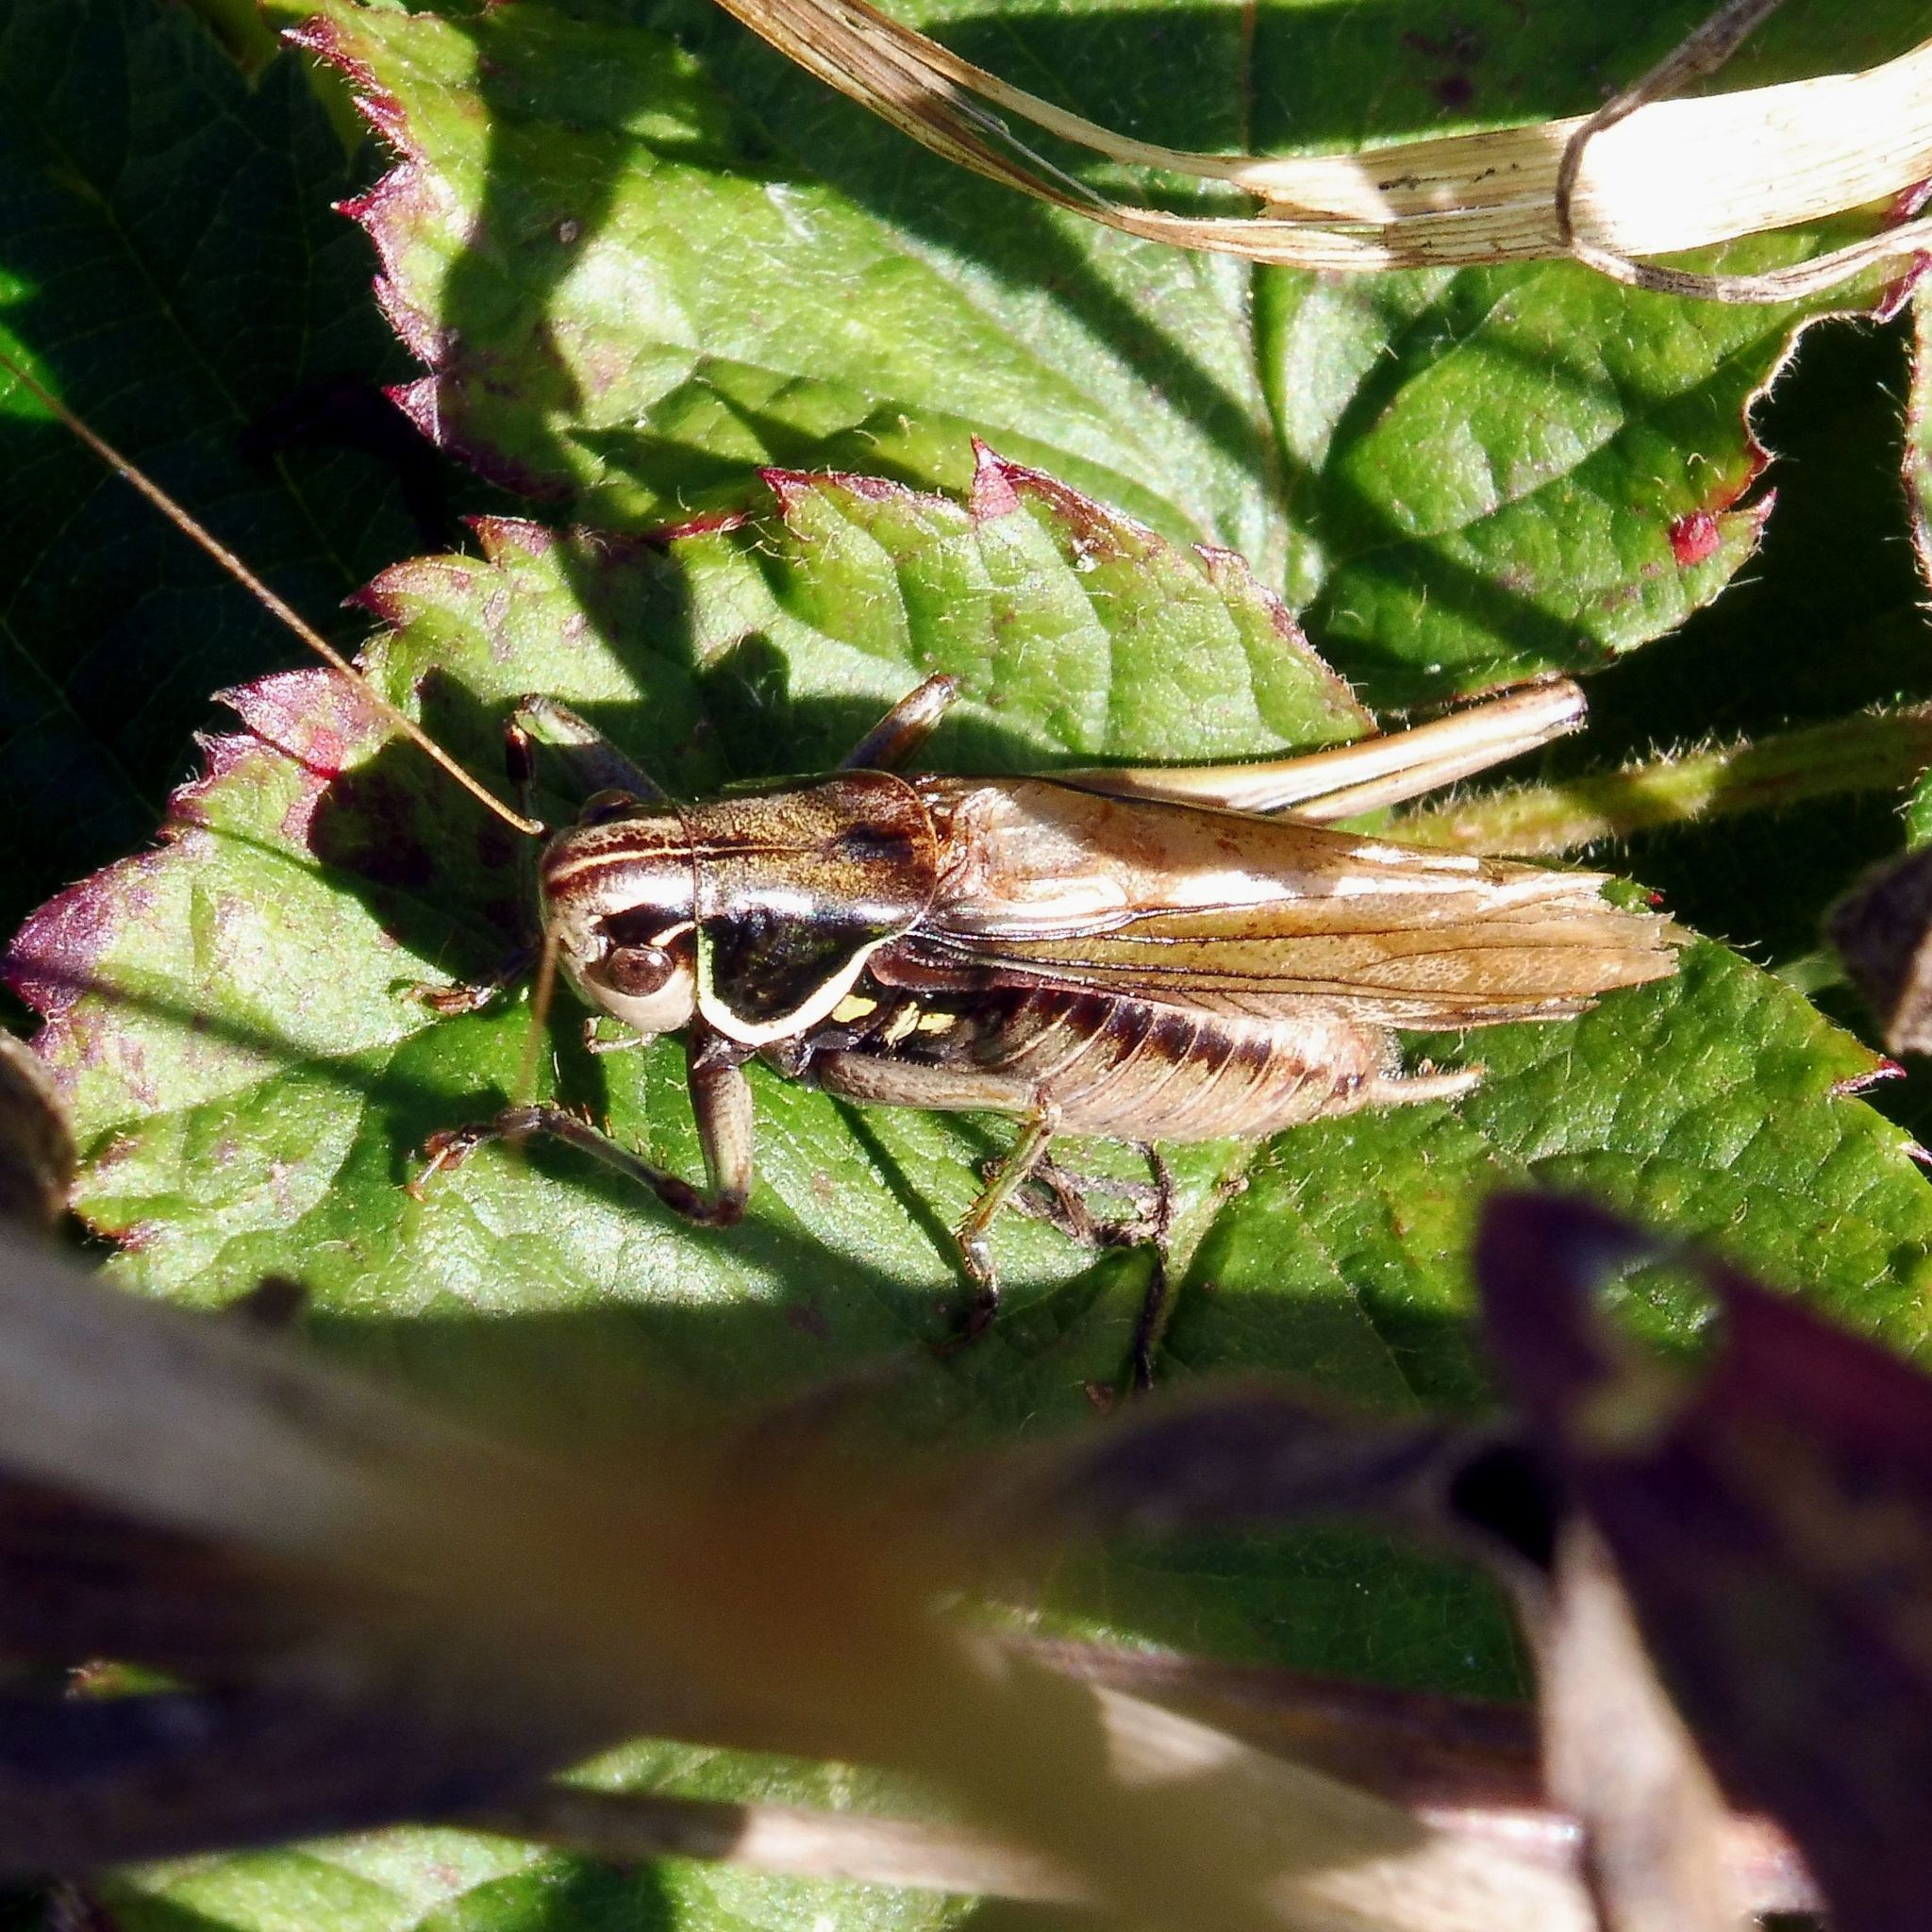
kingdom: Animalia
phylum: Arthropoda
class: Insecta
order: Orthoptera
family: Tettigoniidae
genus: Roeseliana
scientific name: Roeseliana roeselii
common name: Roesel's bush cricket
